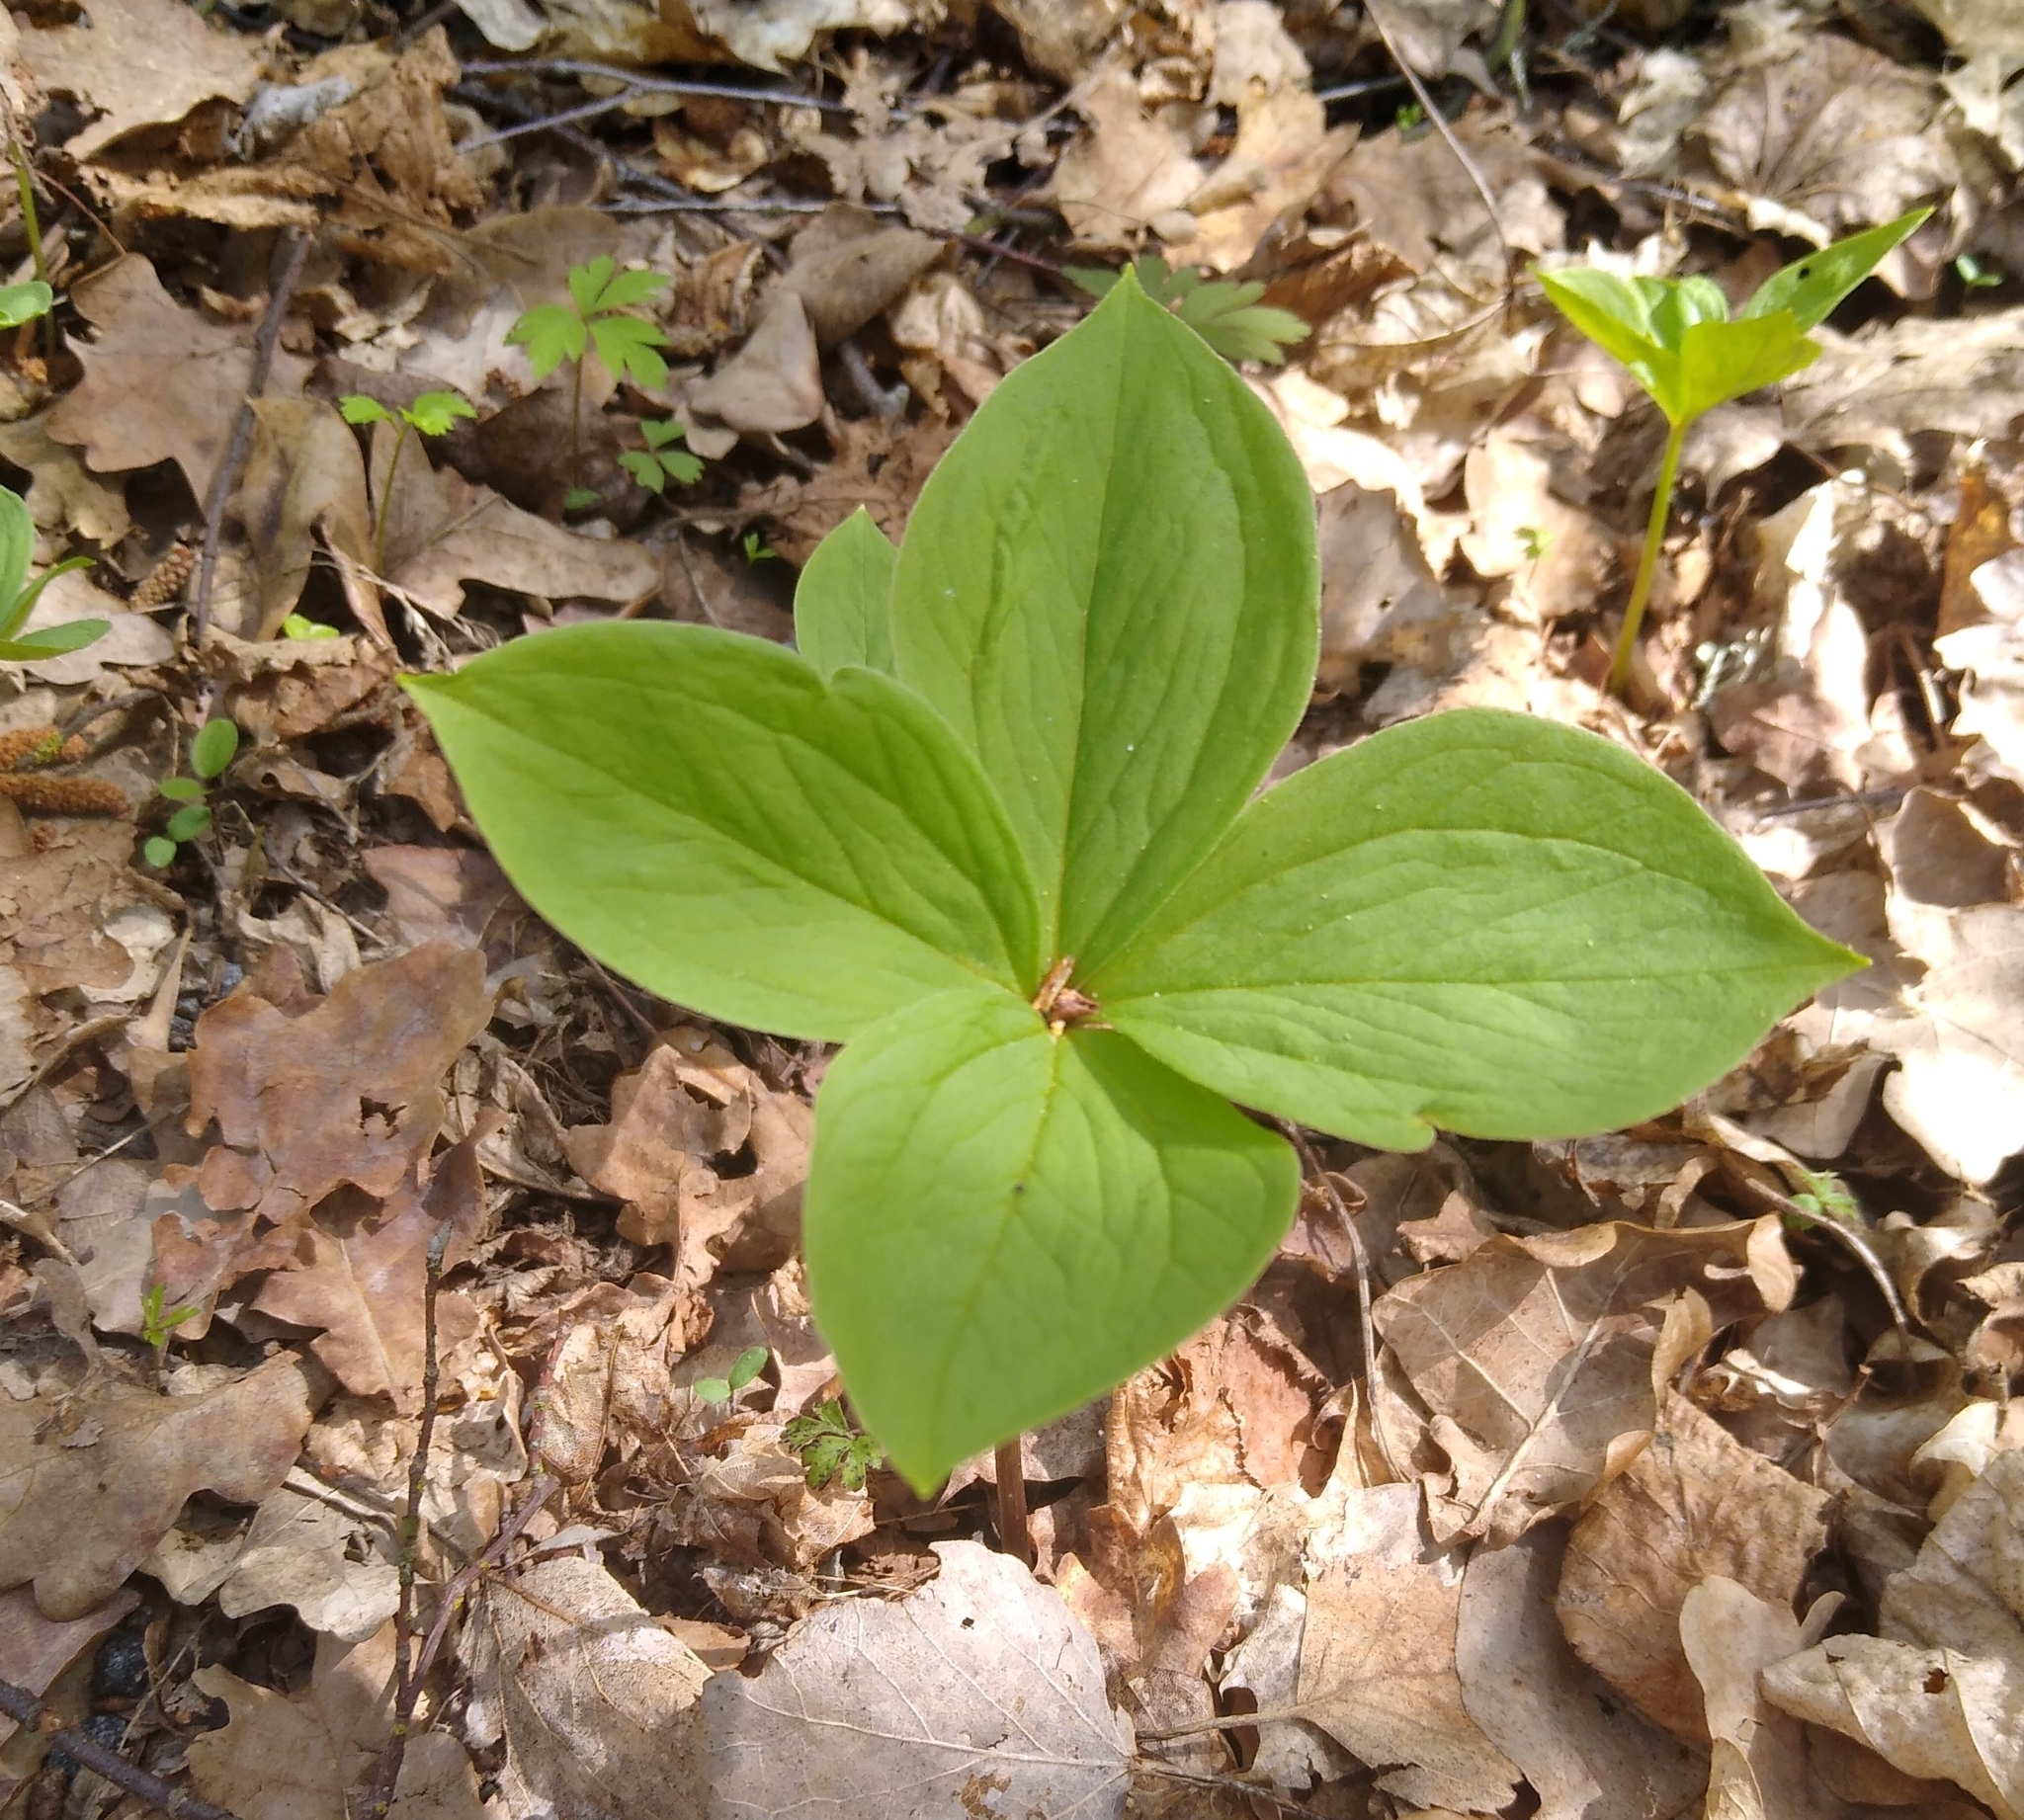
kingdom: Plantae
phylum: Tracheophyta
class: Liliopsida
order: Liliales
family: Melanthiaceae
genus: Paris
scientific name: Paris quadrifolia
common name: Herb-paris
